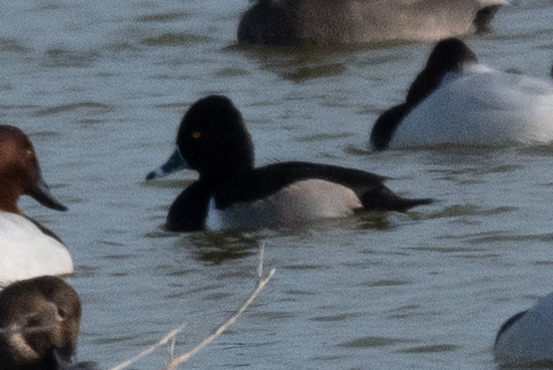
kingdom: Animalia
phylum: Chordata
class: Aves
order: Anseriformes
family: Anatidae
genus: Aythya
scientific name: Aythya collaris
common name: Ring-necked duck
